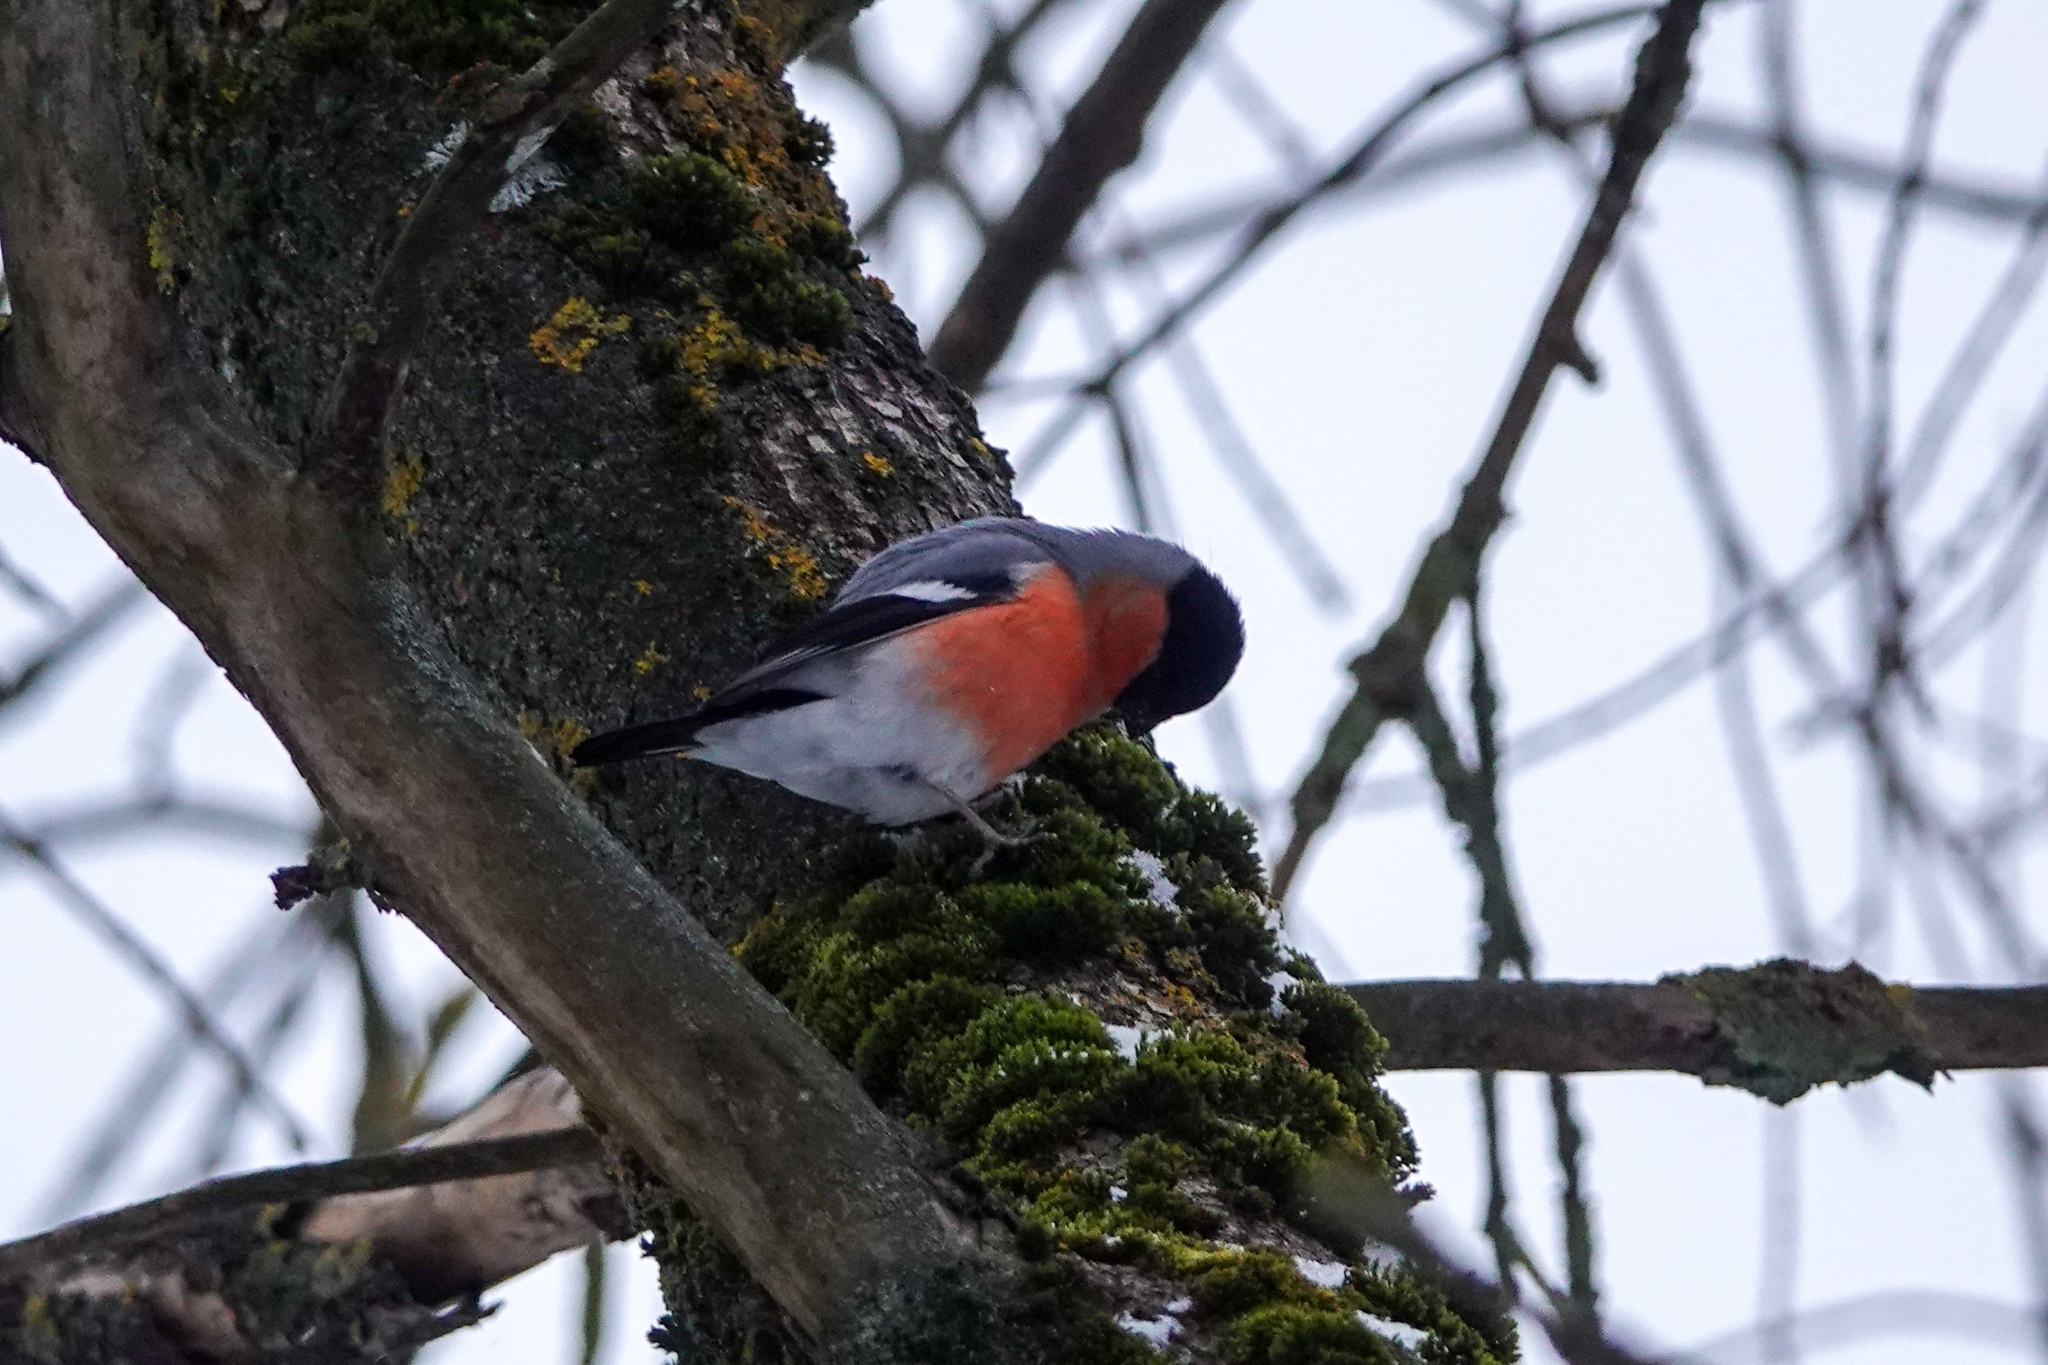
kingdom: Animalia
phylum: Chordata
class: Aves
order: Passeriformes
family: Fringillidae
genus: Pyrrhula
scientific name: Pyrrhula pyrrhula
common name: Eurasian bullfinch
